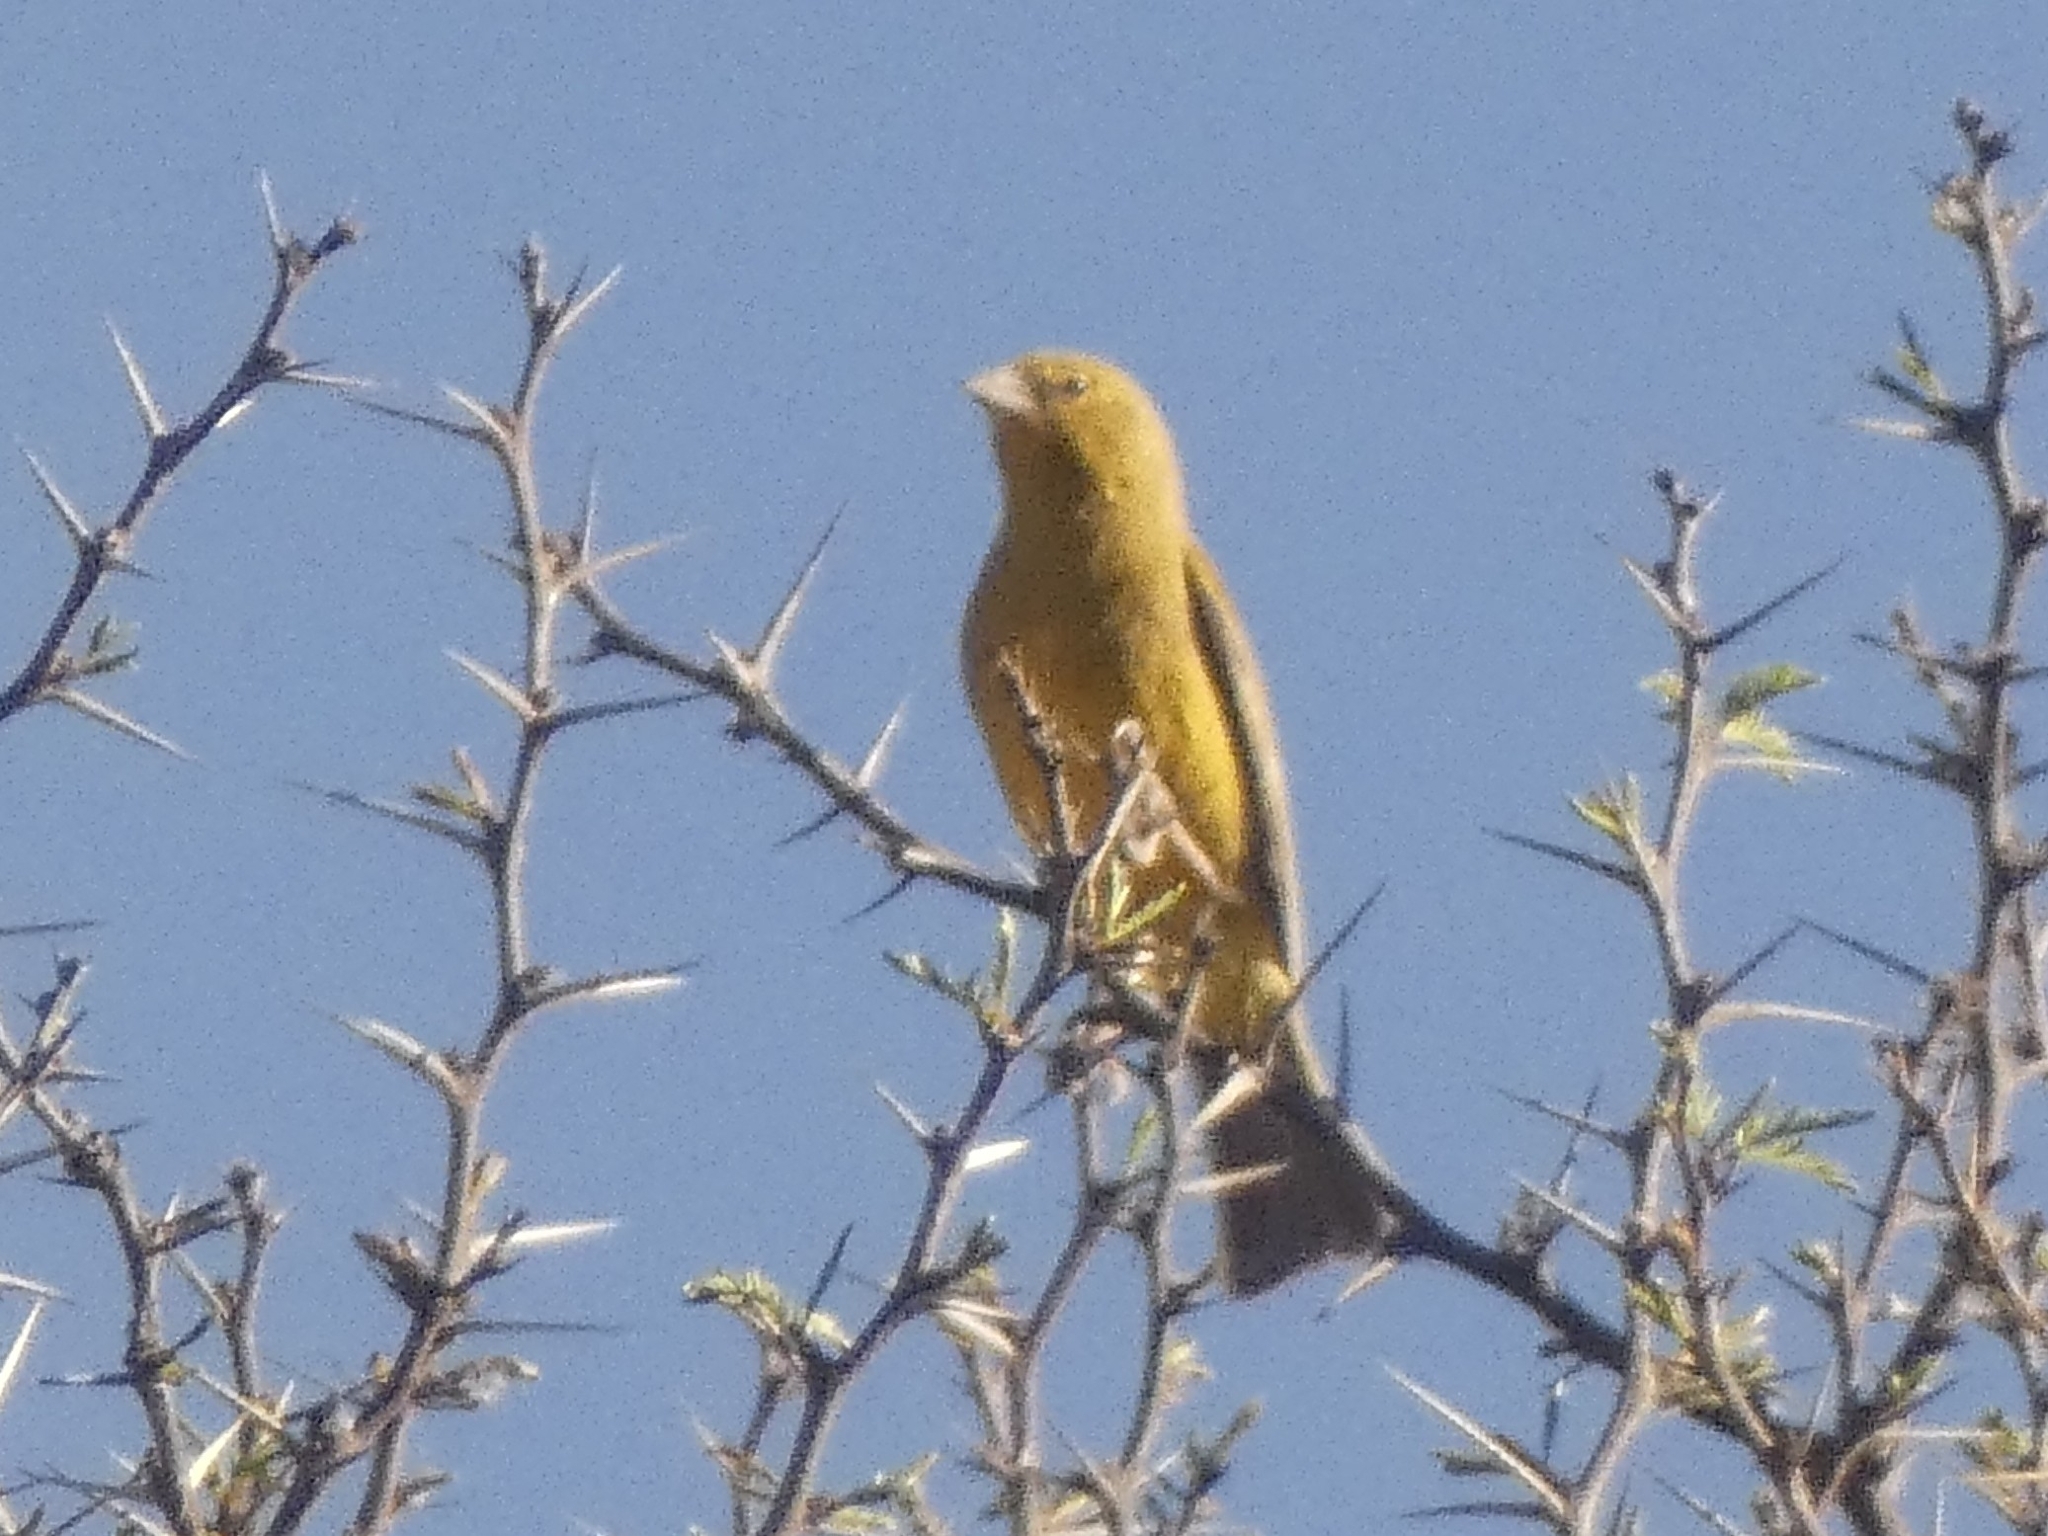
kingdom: Animalia
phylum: Chordata
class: Aves
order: Passeriformes
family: Thraupidae
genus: Sicalis
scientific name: Sicalis olivascens
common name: Greenish yellow finch
